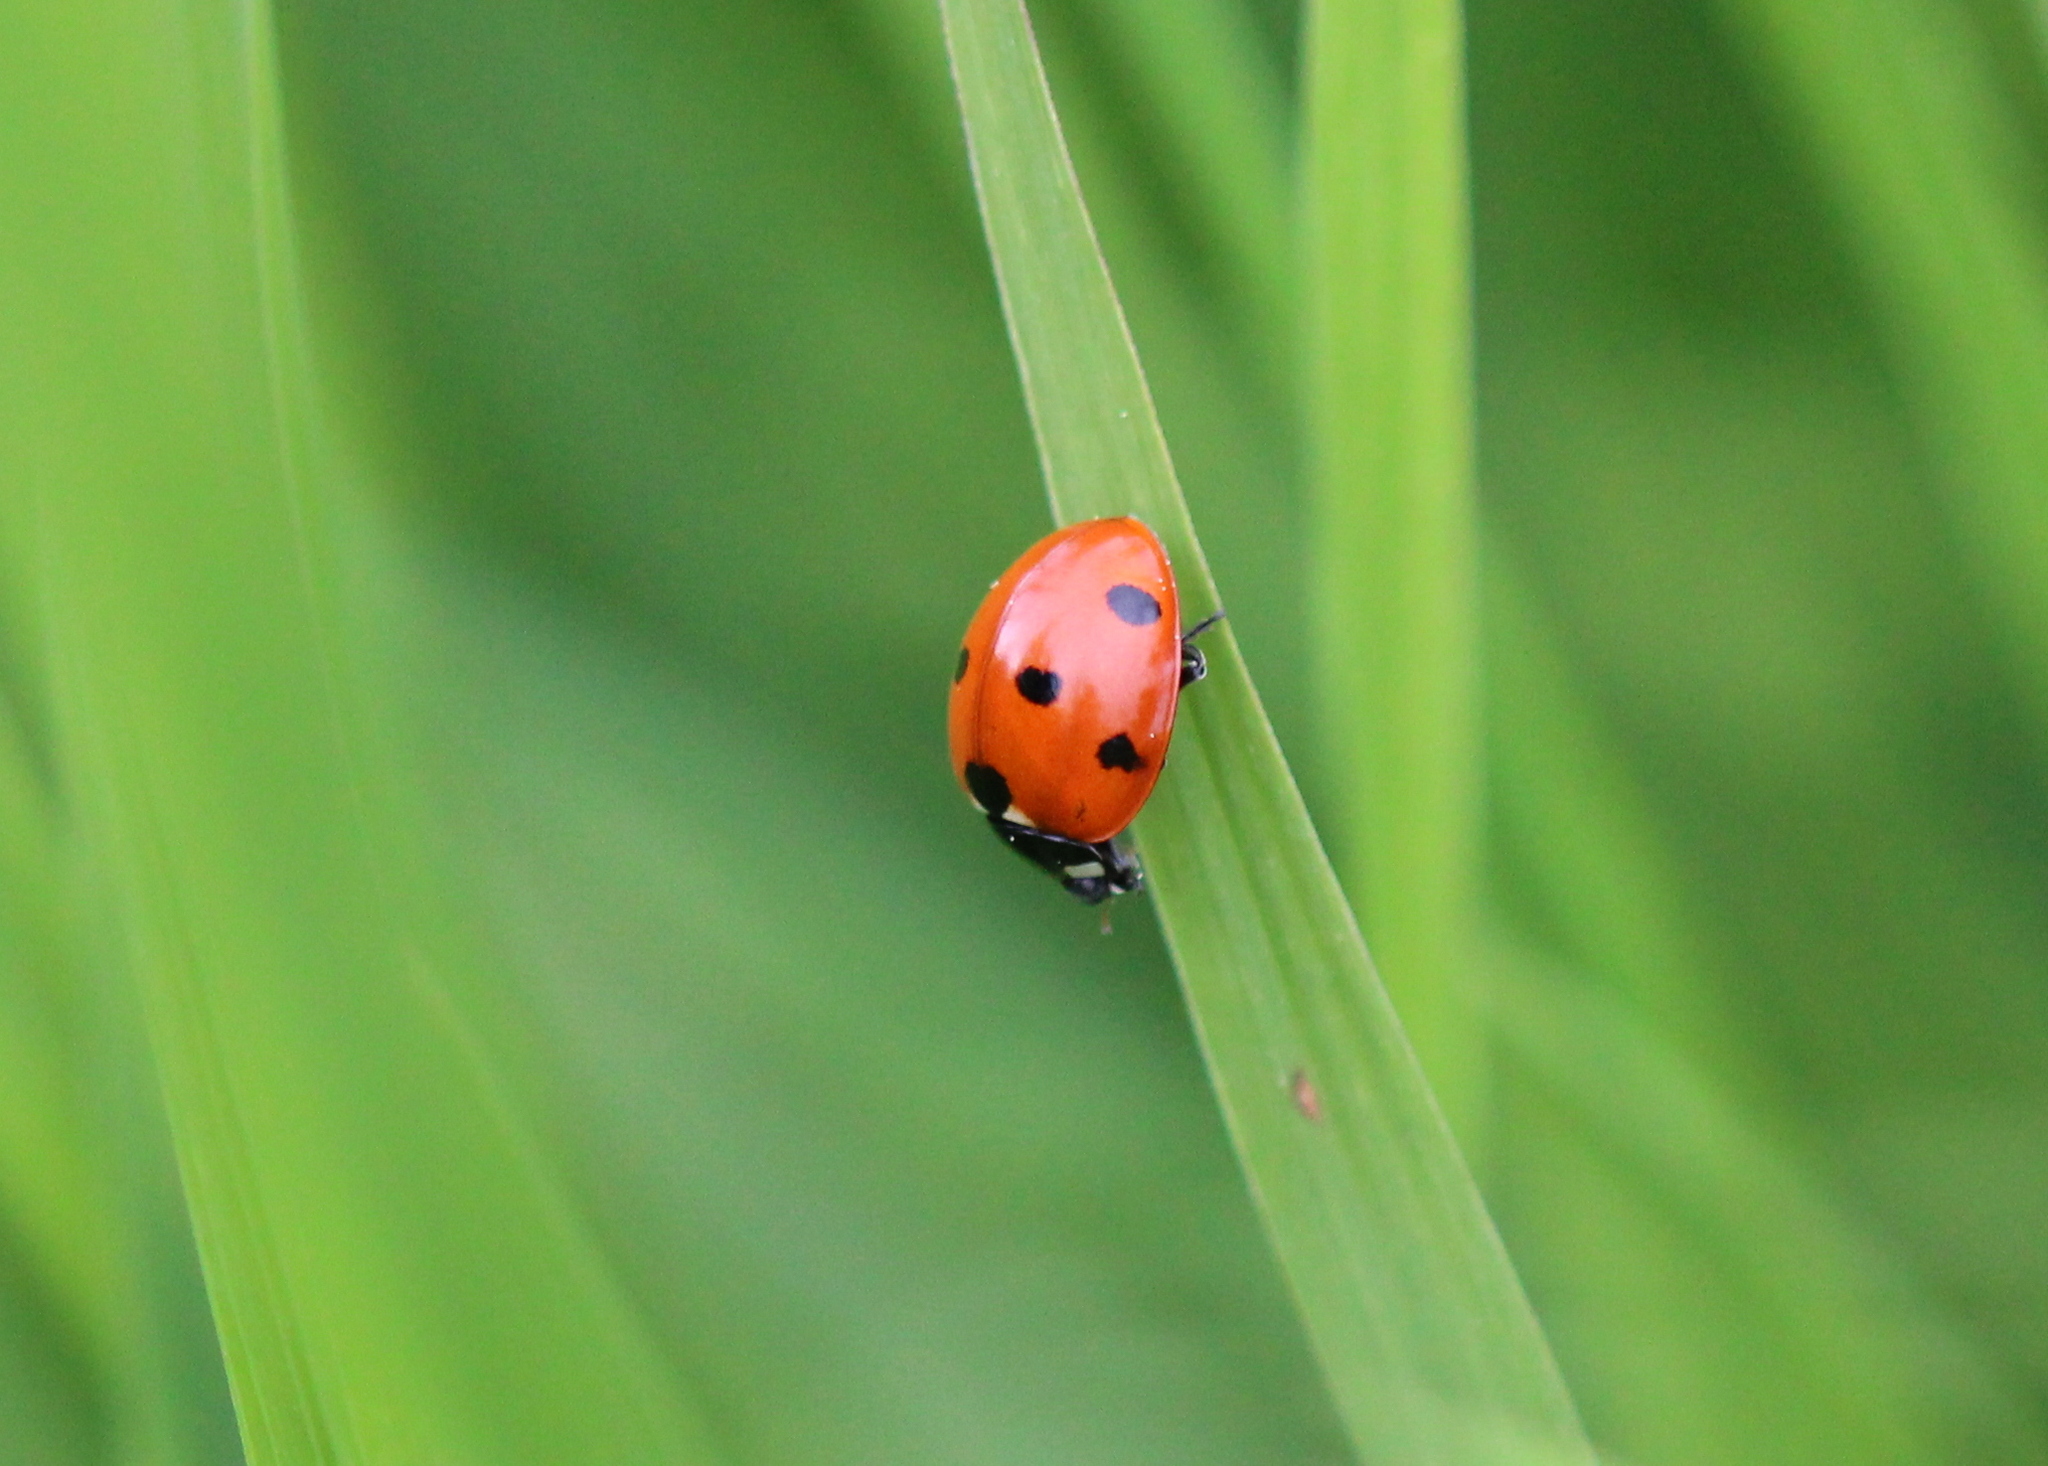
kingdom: Animalia
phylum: Arthropoda
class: Insecta
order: Coleoptera
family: Coccinellidae
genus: Coccinella
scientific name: Coccinella septempunctata
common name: Sevenspotted lady beetle
